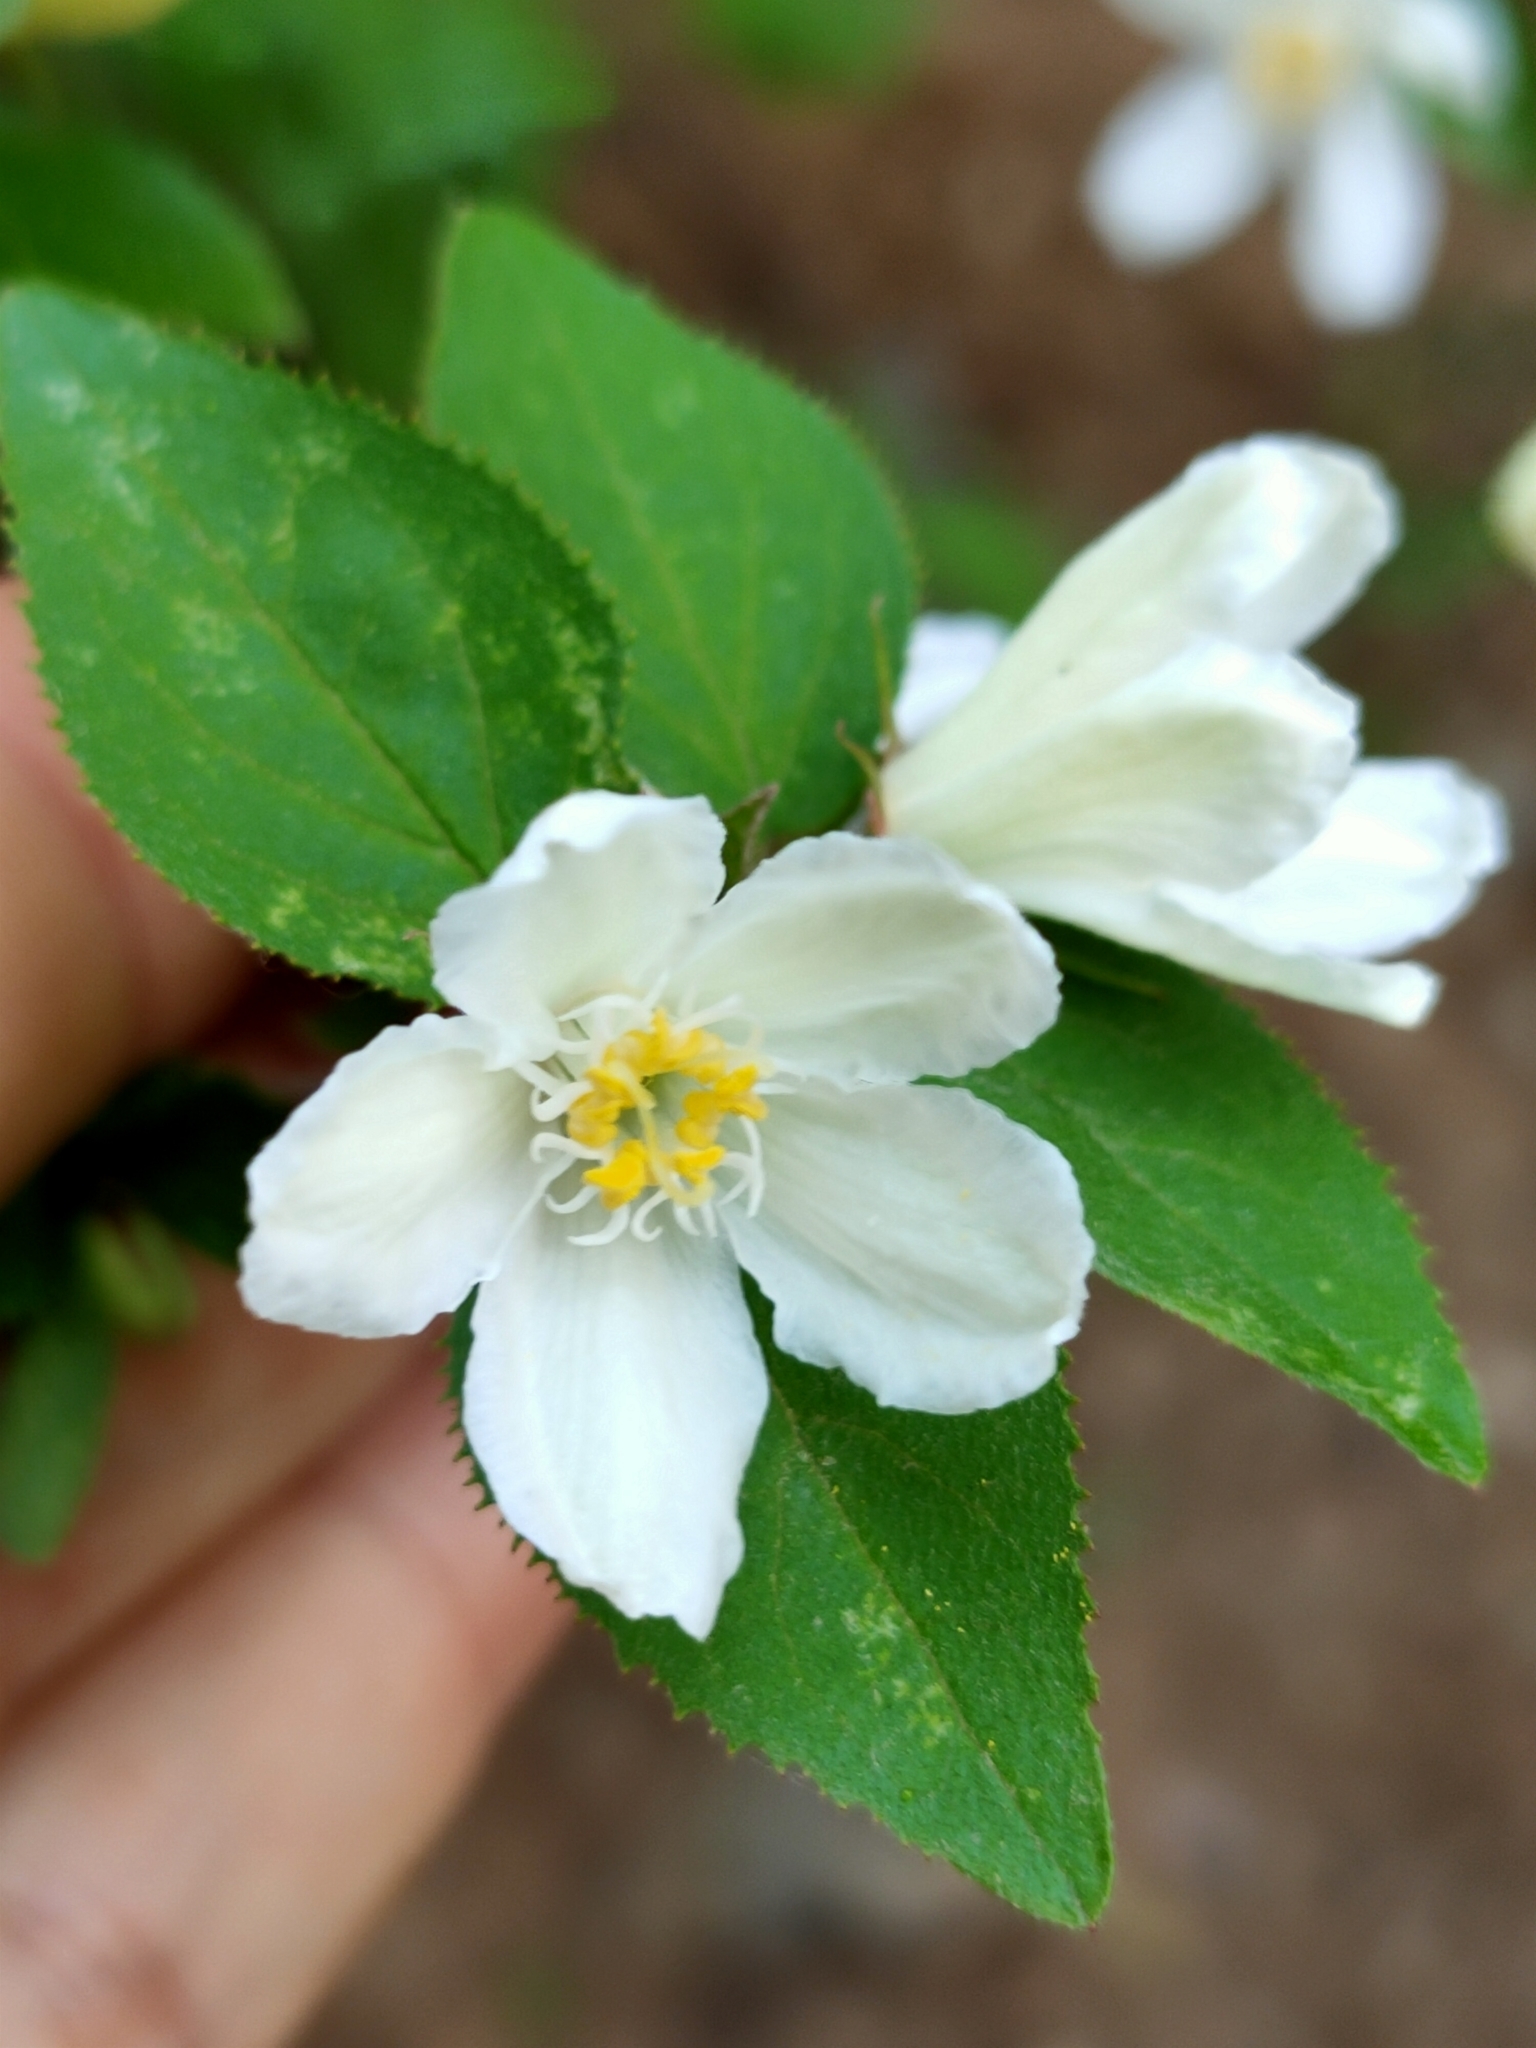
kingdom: Plantae
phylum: Tracheophyta
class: Magnoliopsida
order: Cornales
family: Hydrangeaceae
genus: Deutzia
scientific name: Deutzia grandiflora
